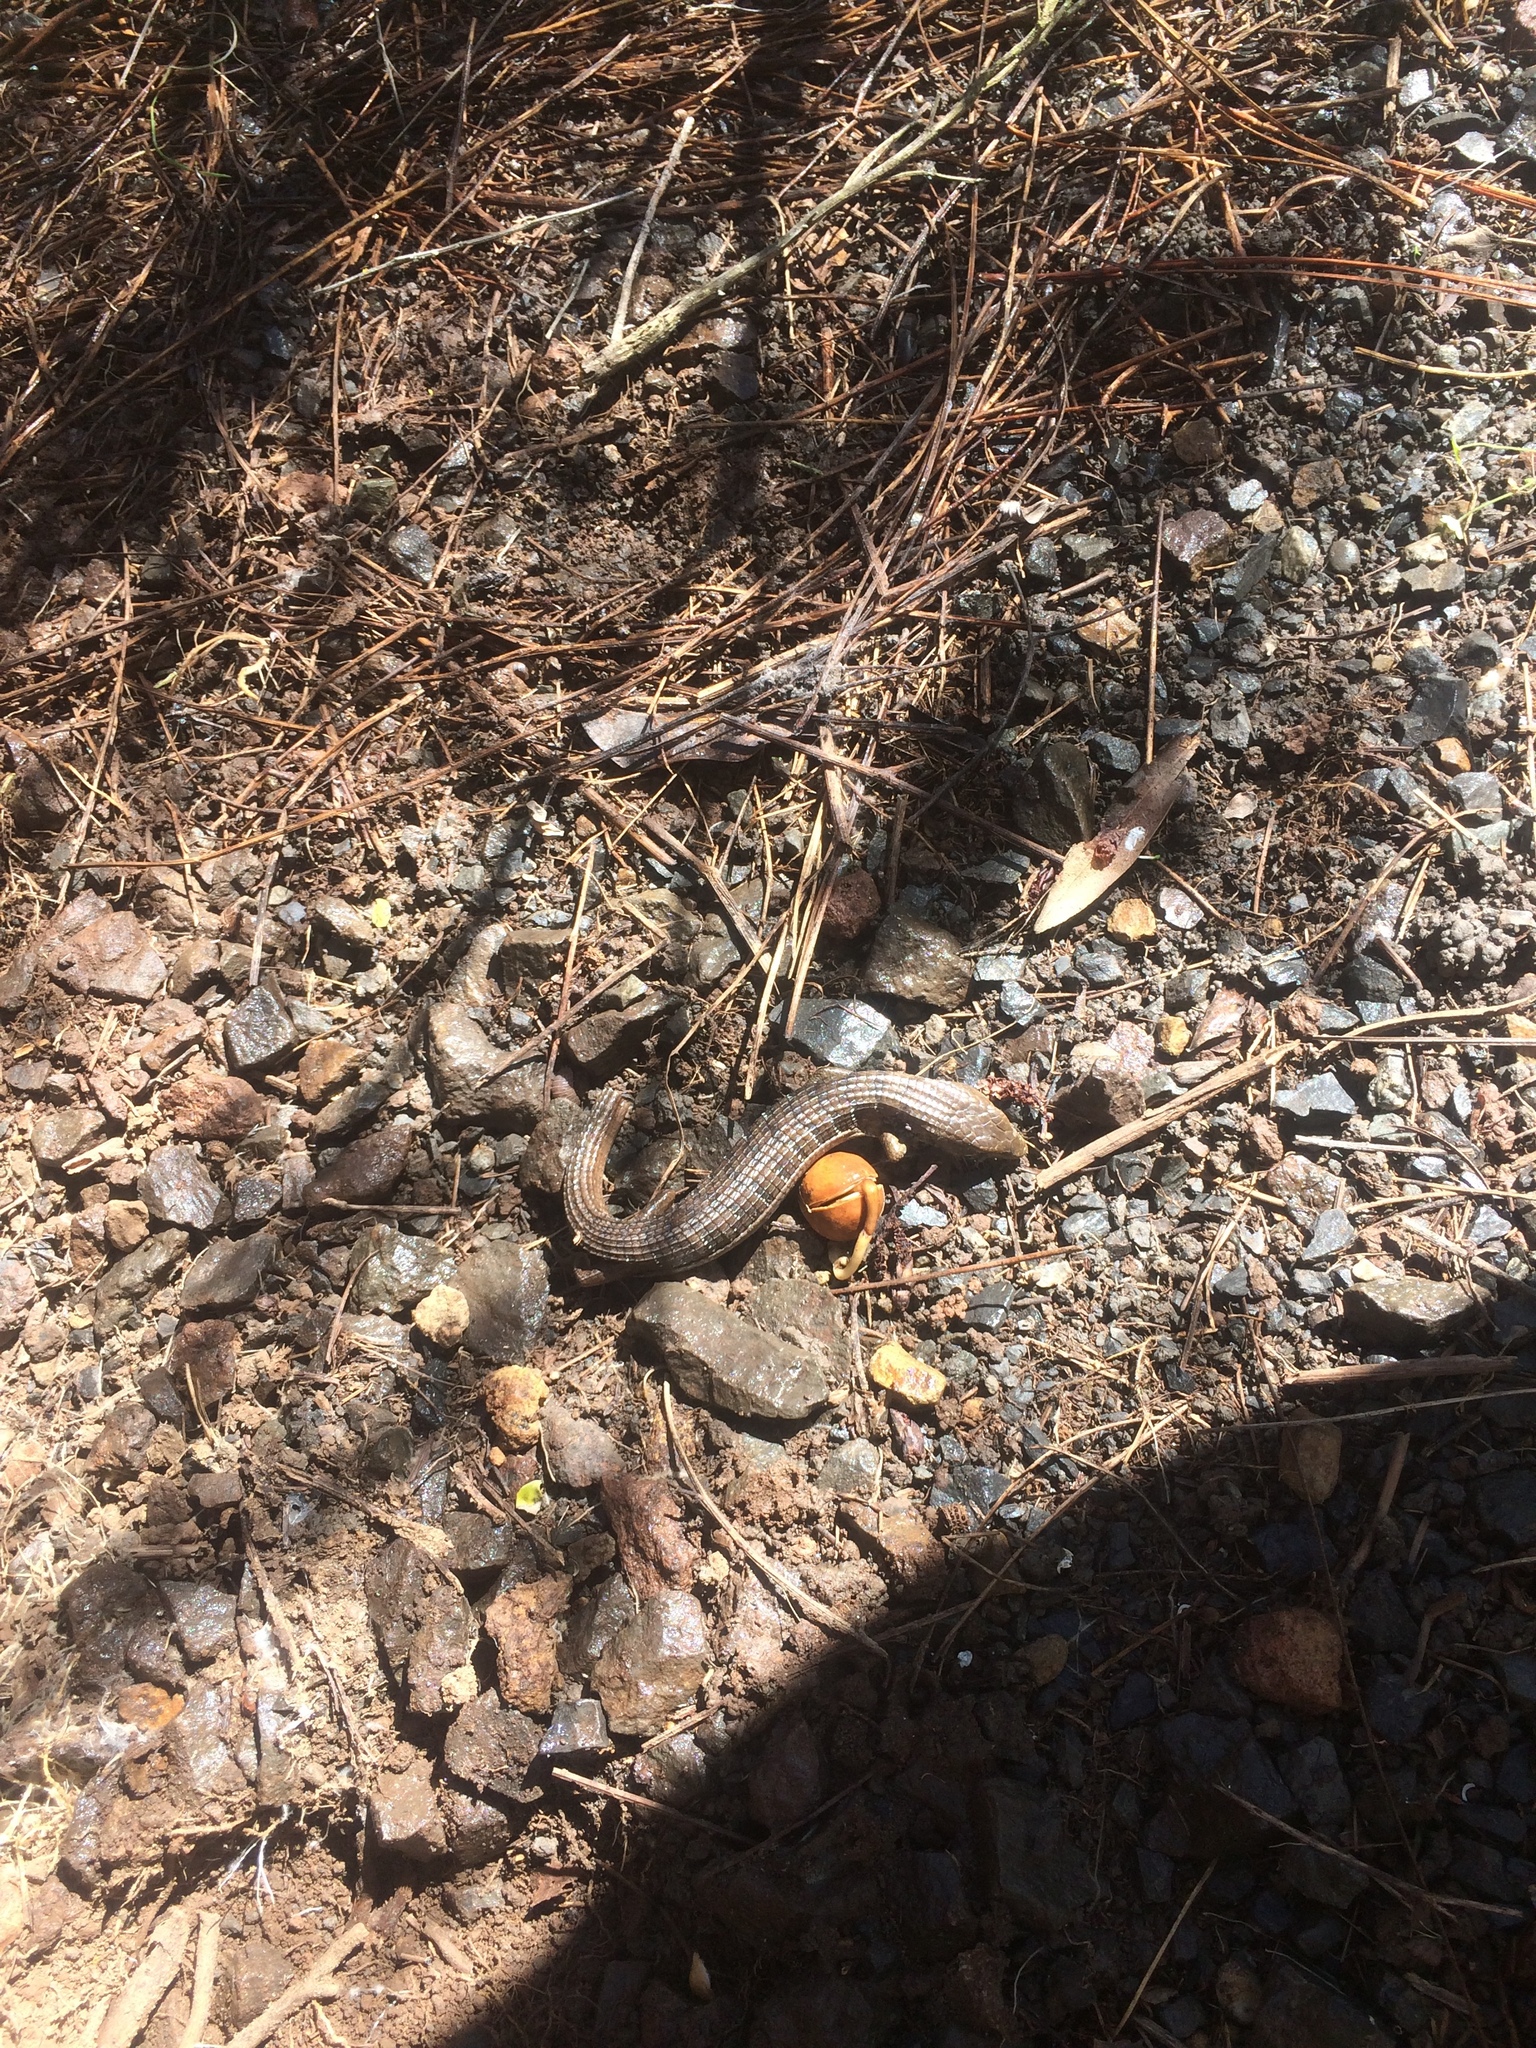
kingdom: Animalia
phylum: Chordata
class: Squamata
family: Anguidae
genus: Elgaria
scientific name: Elgaria multicarinata
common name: Southern alligator lizard
